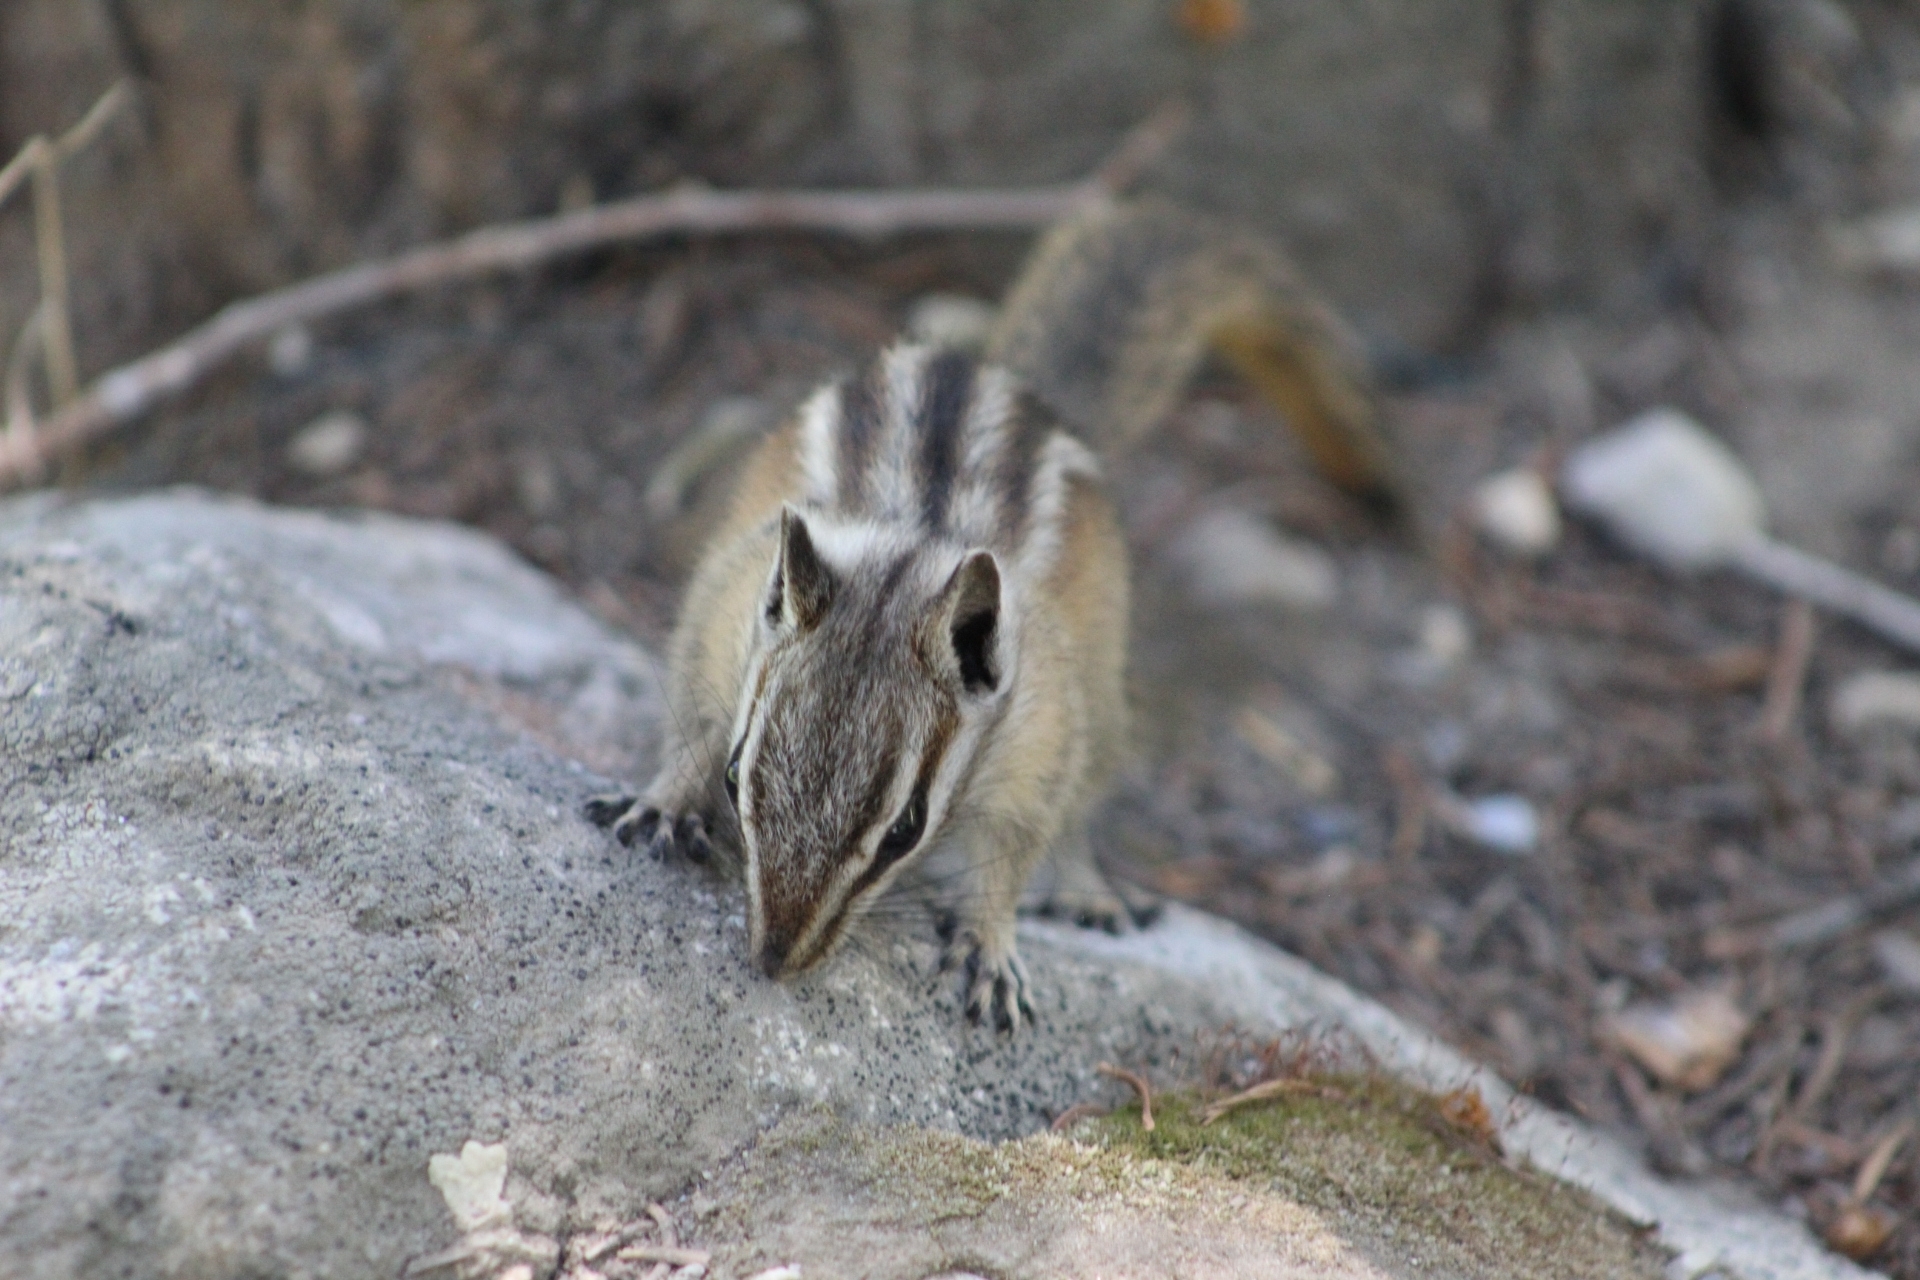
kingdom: Animalia
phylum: Chordata
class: Mammalia
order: Rodentia
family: Sciuridae
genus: Tamias
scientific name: Tamias umbrinus
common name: Uinta chipmunk
